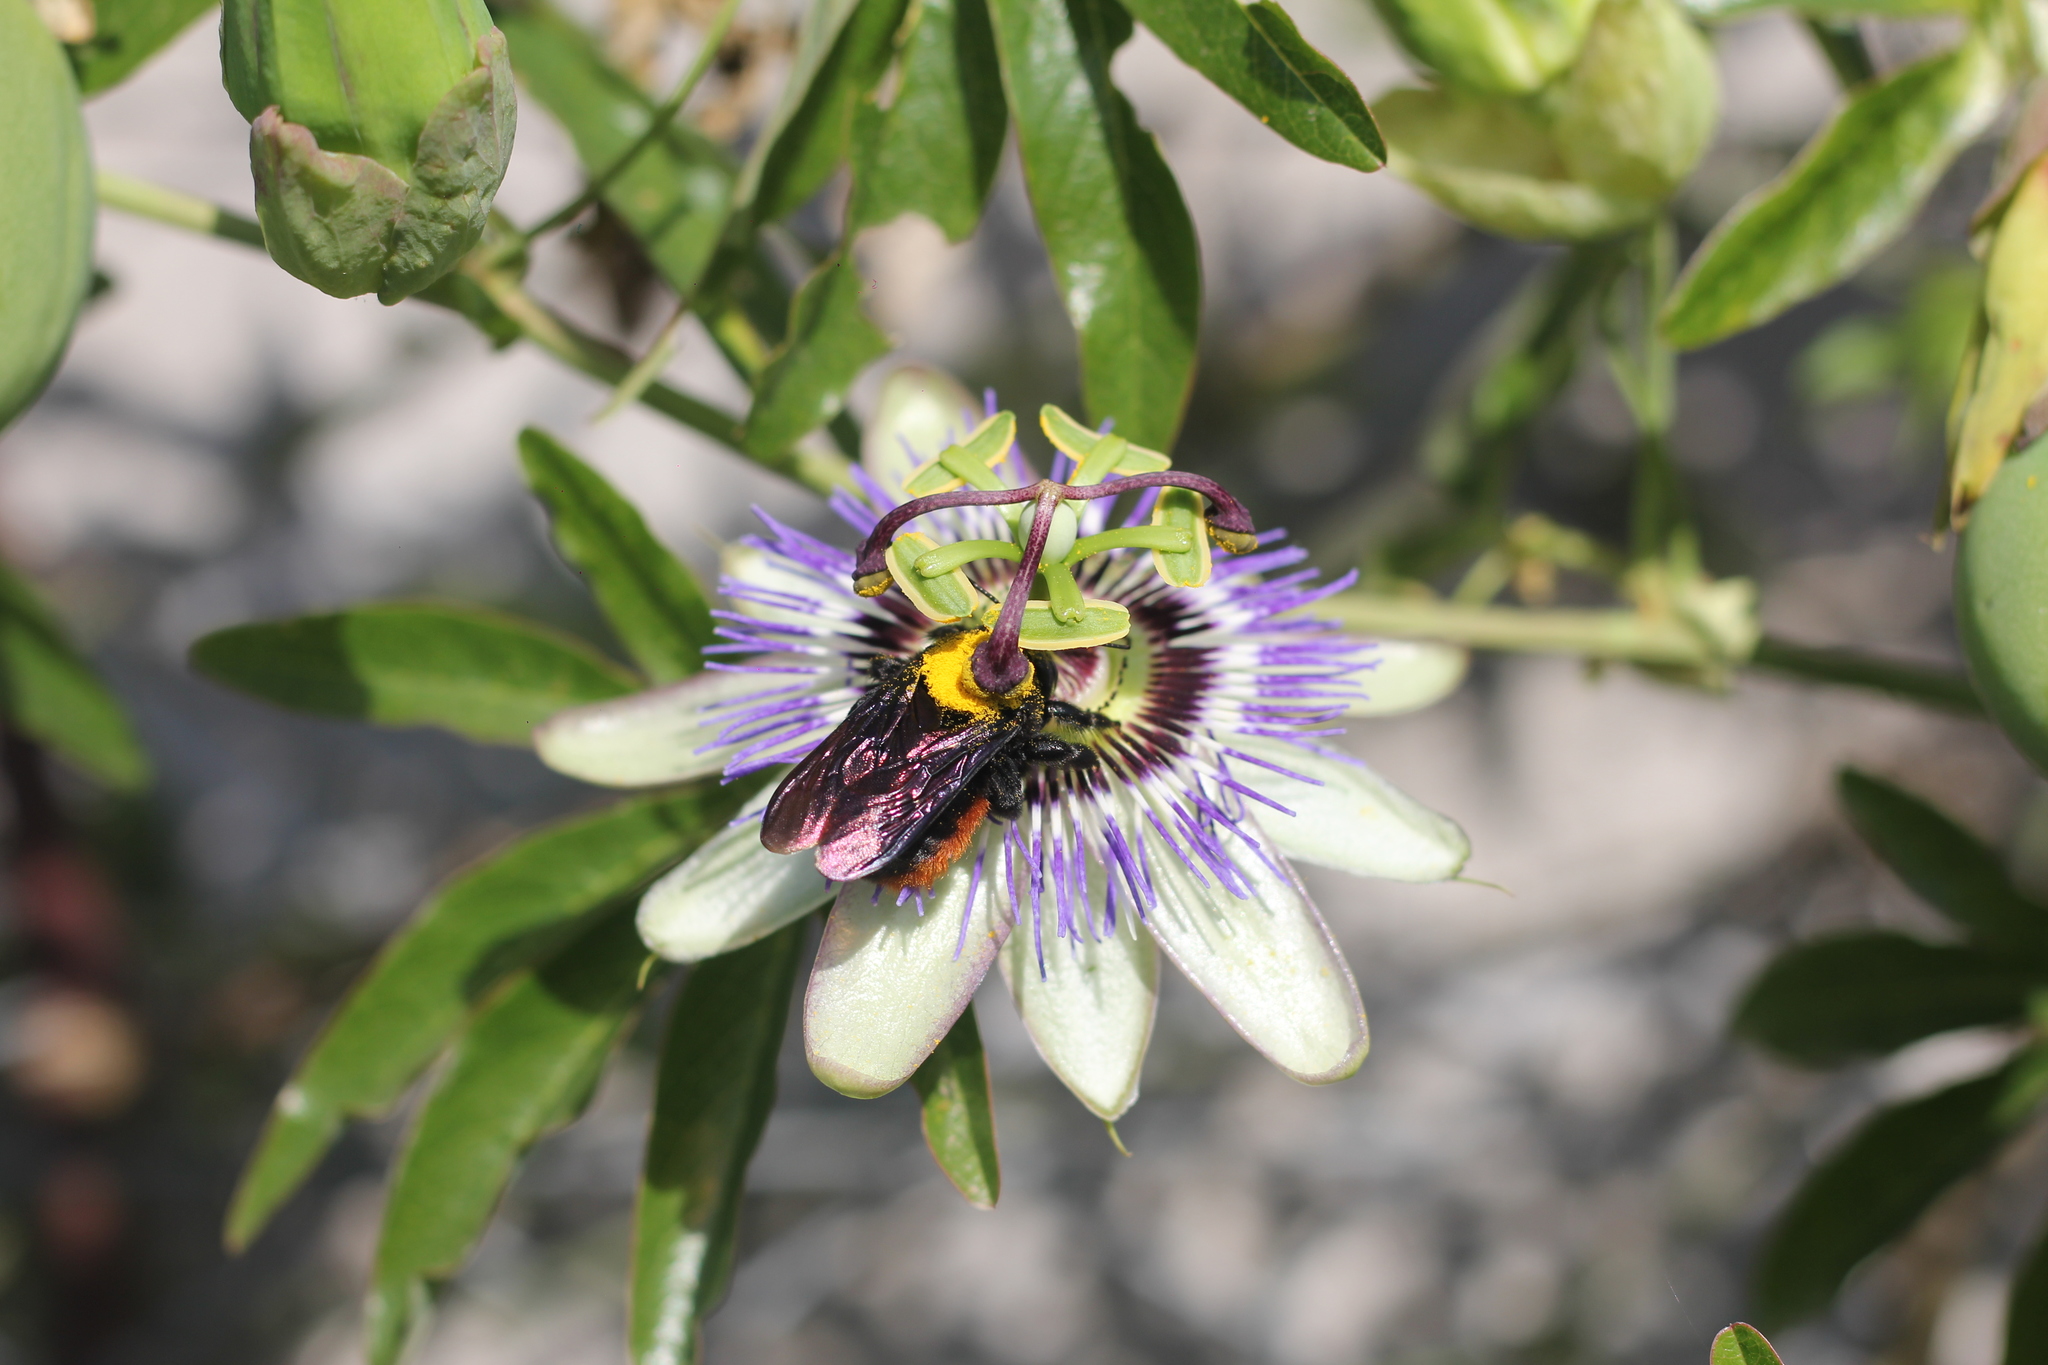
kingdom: Animalia
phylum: Arthropoda
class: Insecta
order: Hymenoptera
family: Apidae
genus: Xylocopa
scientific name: Xylocopa augusti
